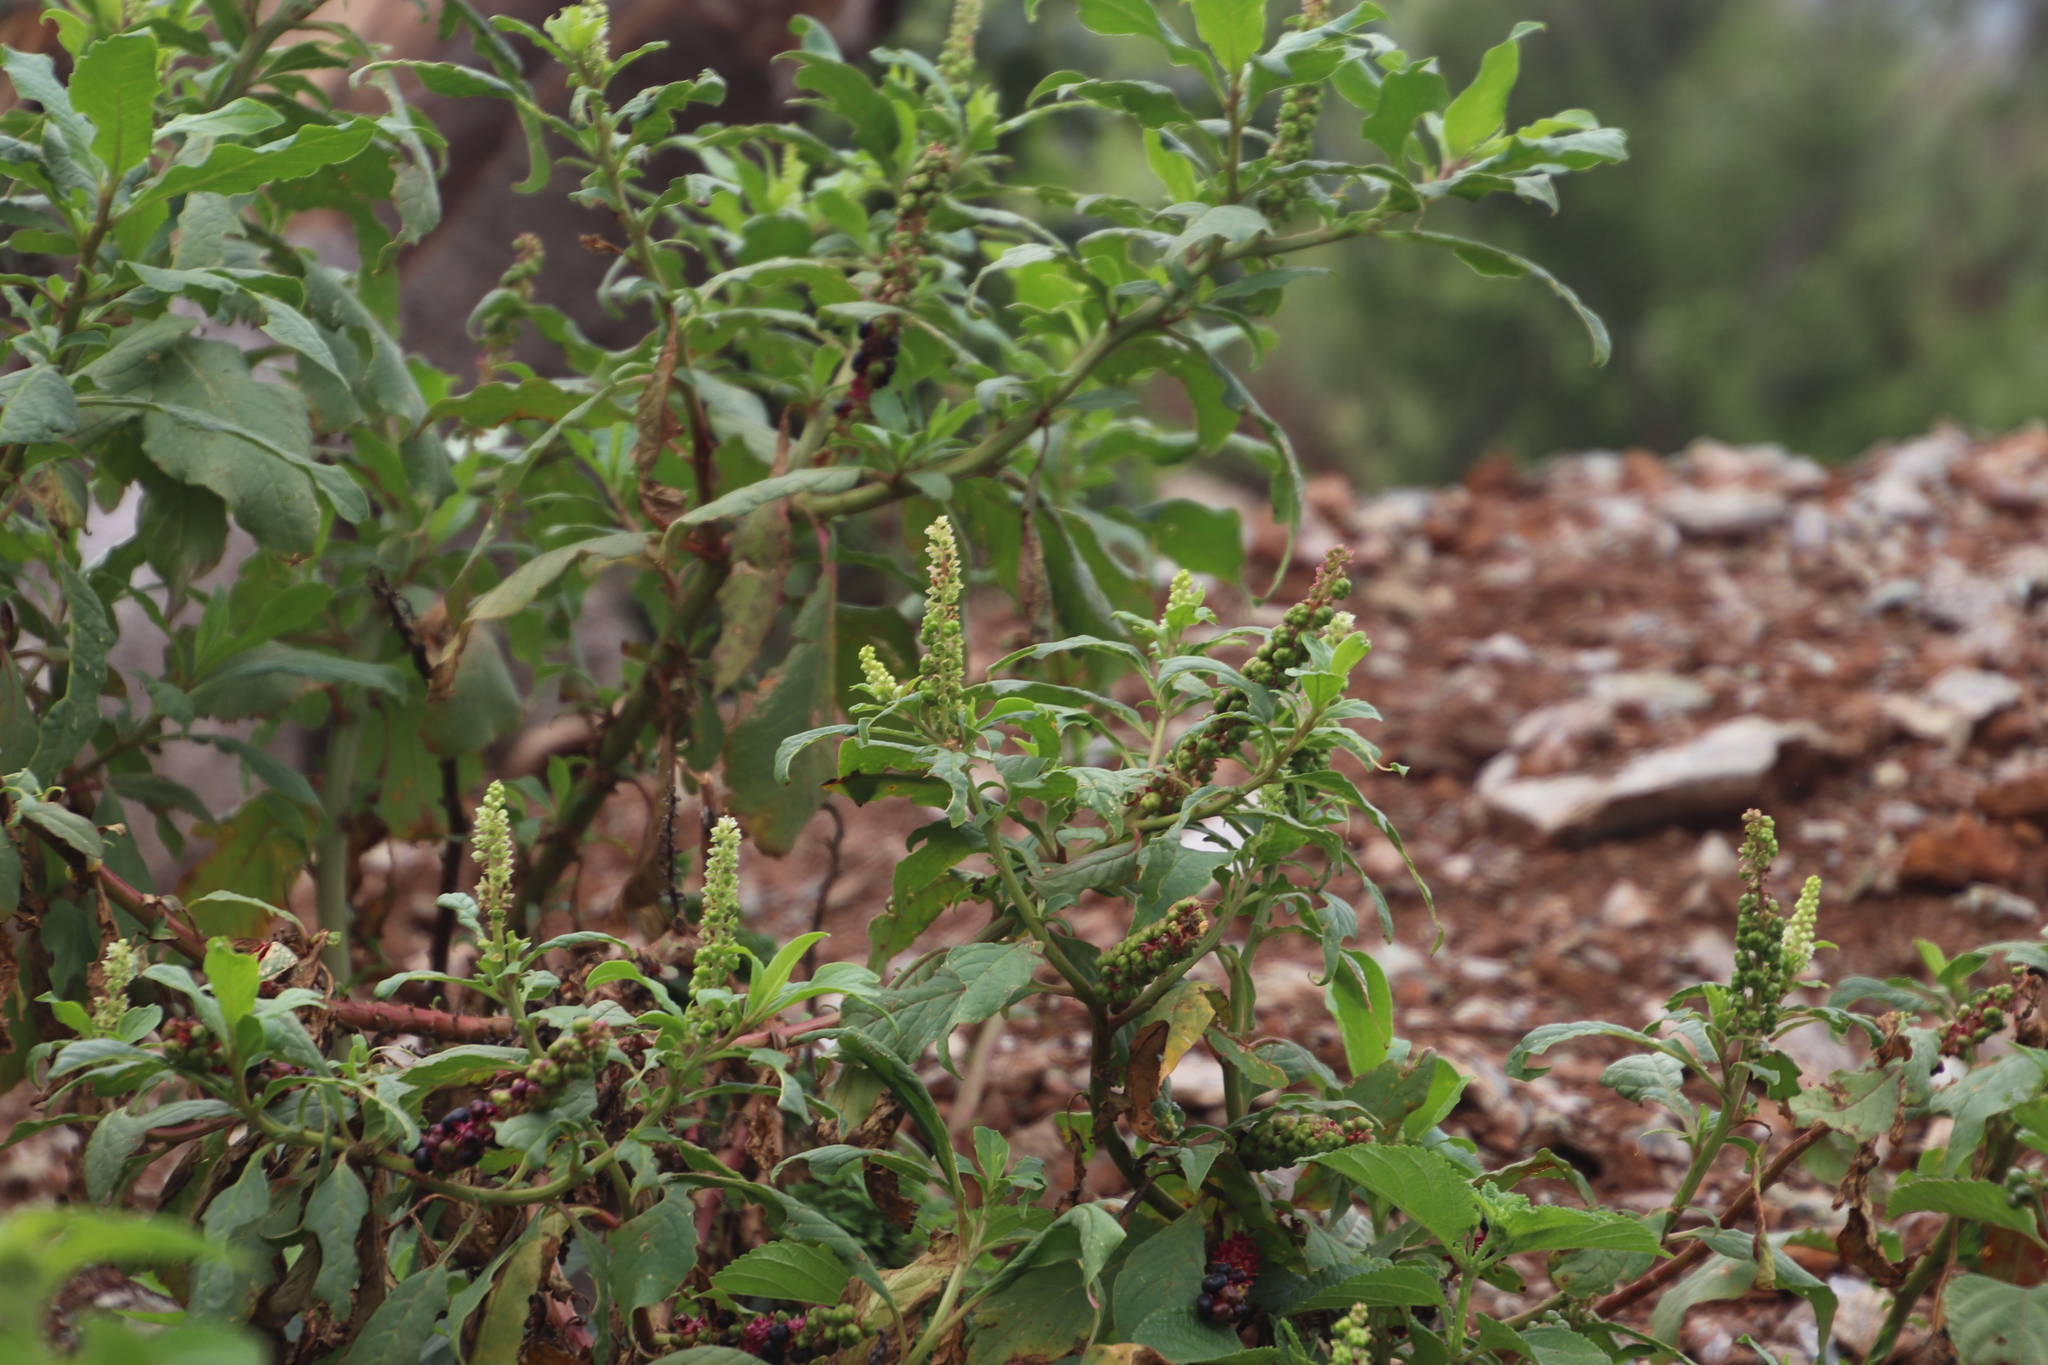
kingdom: Plantae
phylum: Tracheophyta
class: Magnoliopsida
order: Caryophyllales
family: Phytolaccaceae
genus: Phytolacca
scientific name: Phytolacca icosandra
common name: Button pokeweed
